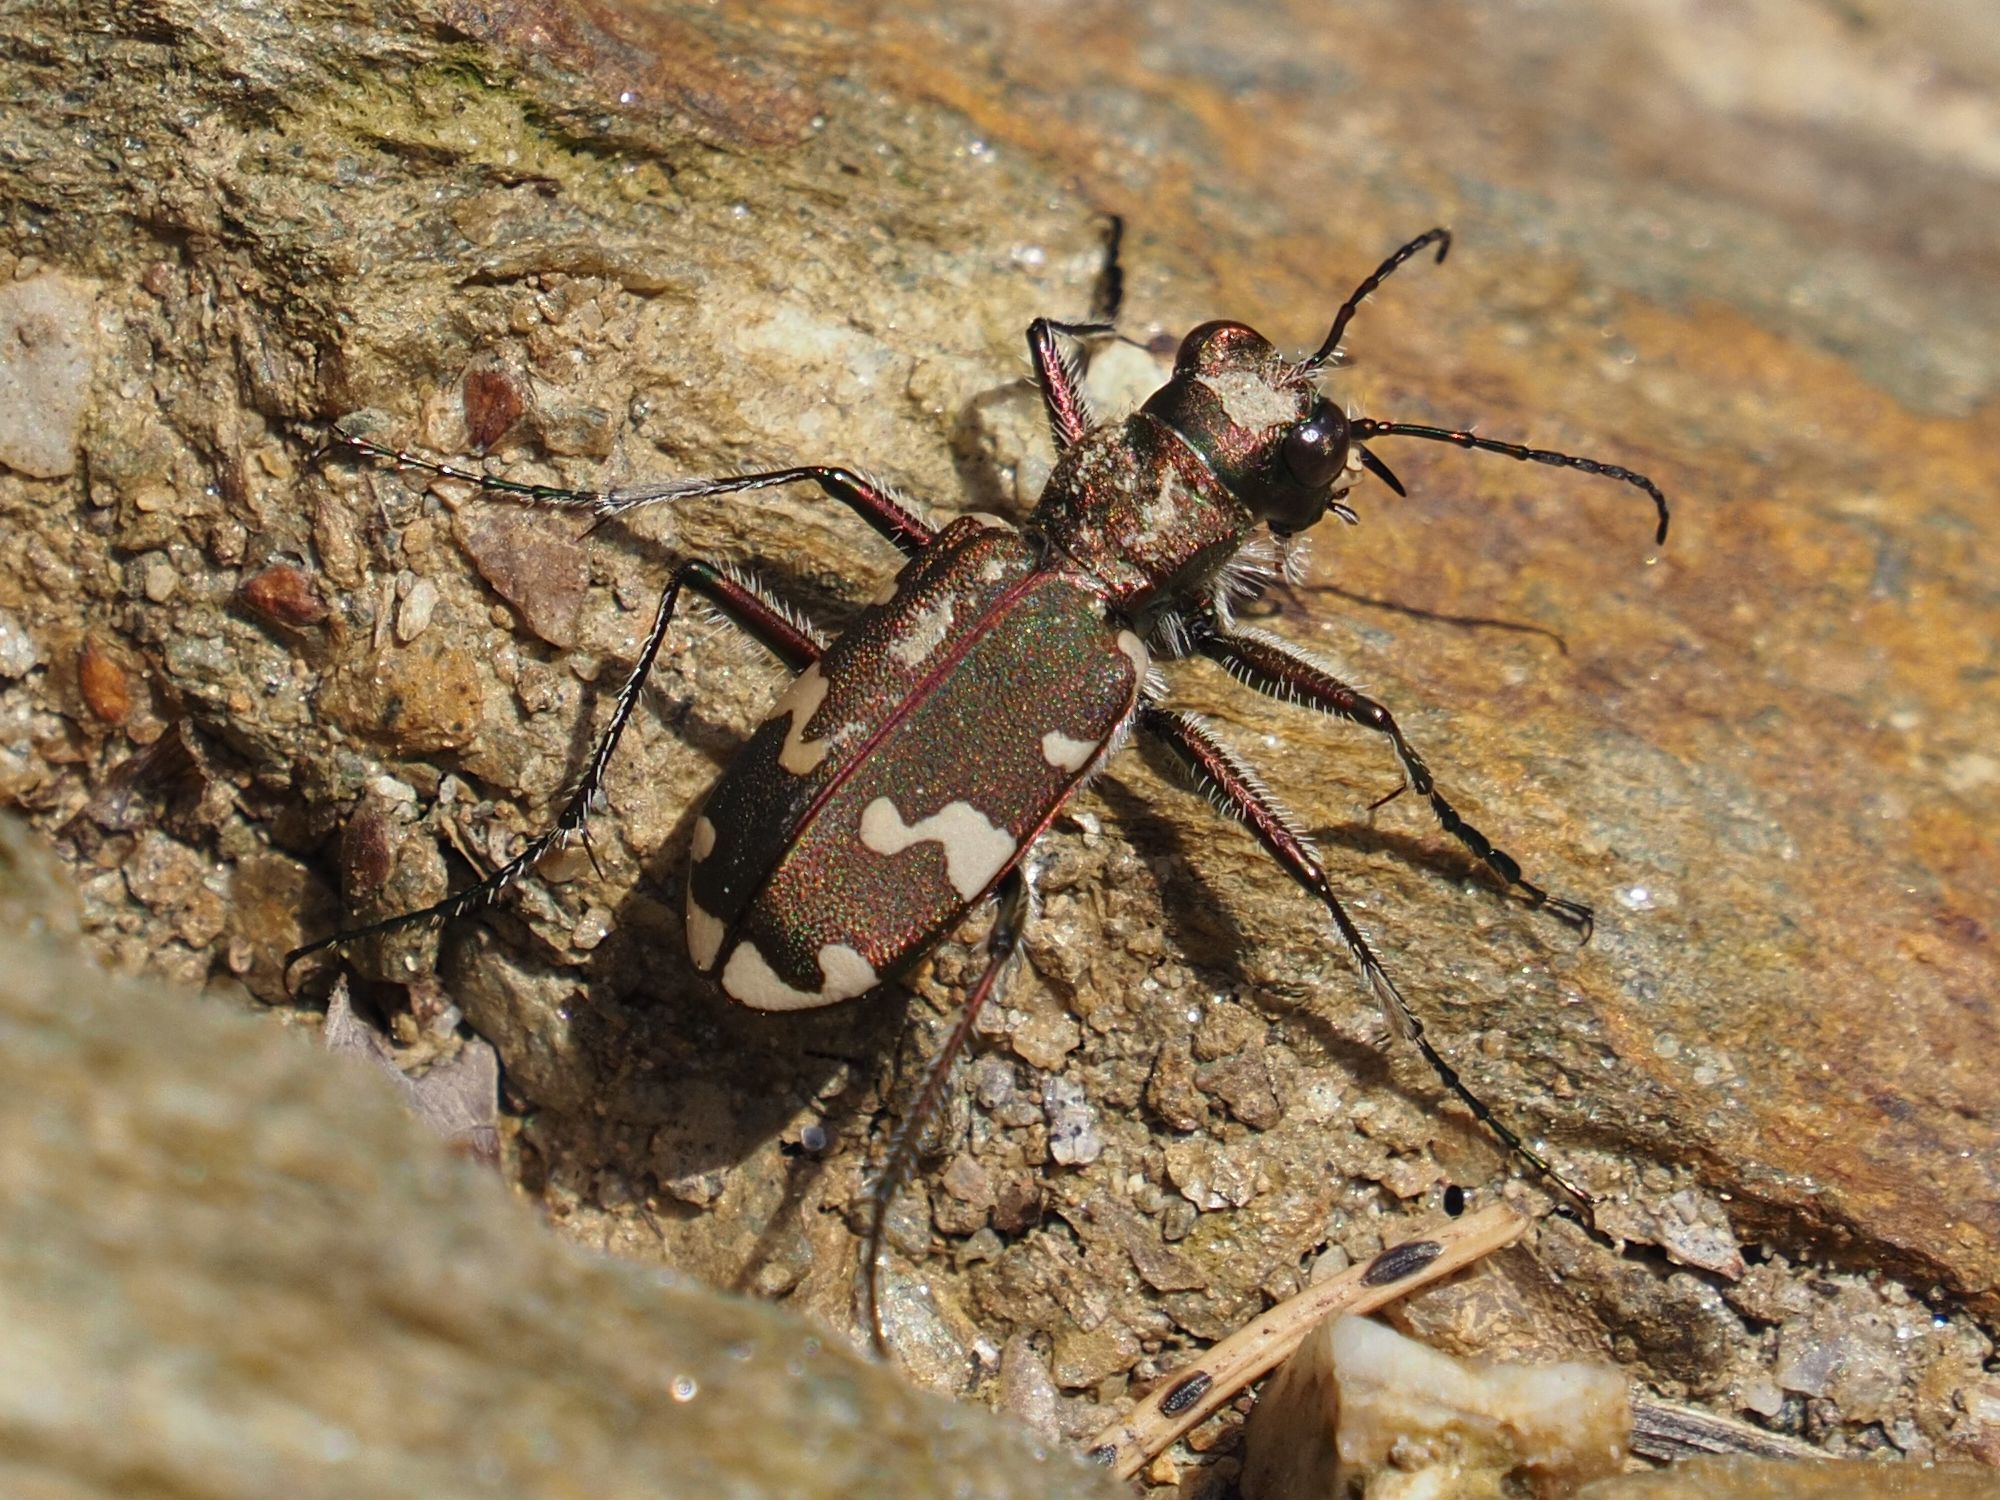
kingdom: Animalia
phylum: Arthropoda
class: Insecta
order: Coleoptera
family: Carabidae
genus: Cicindela
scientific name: Cicindela sylvicola
